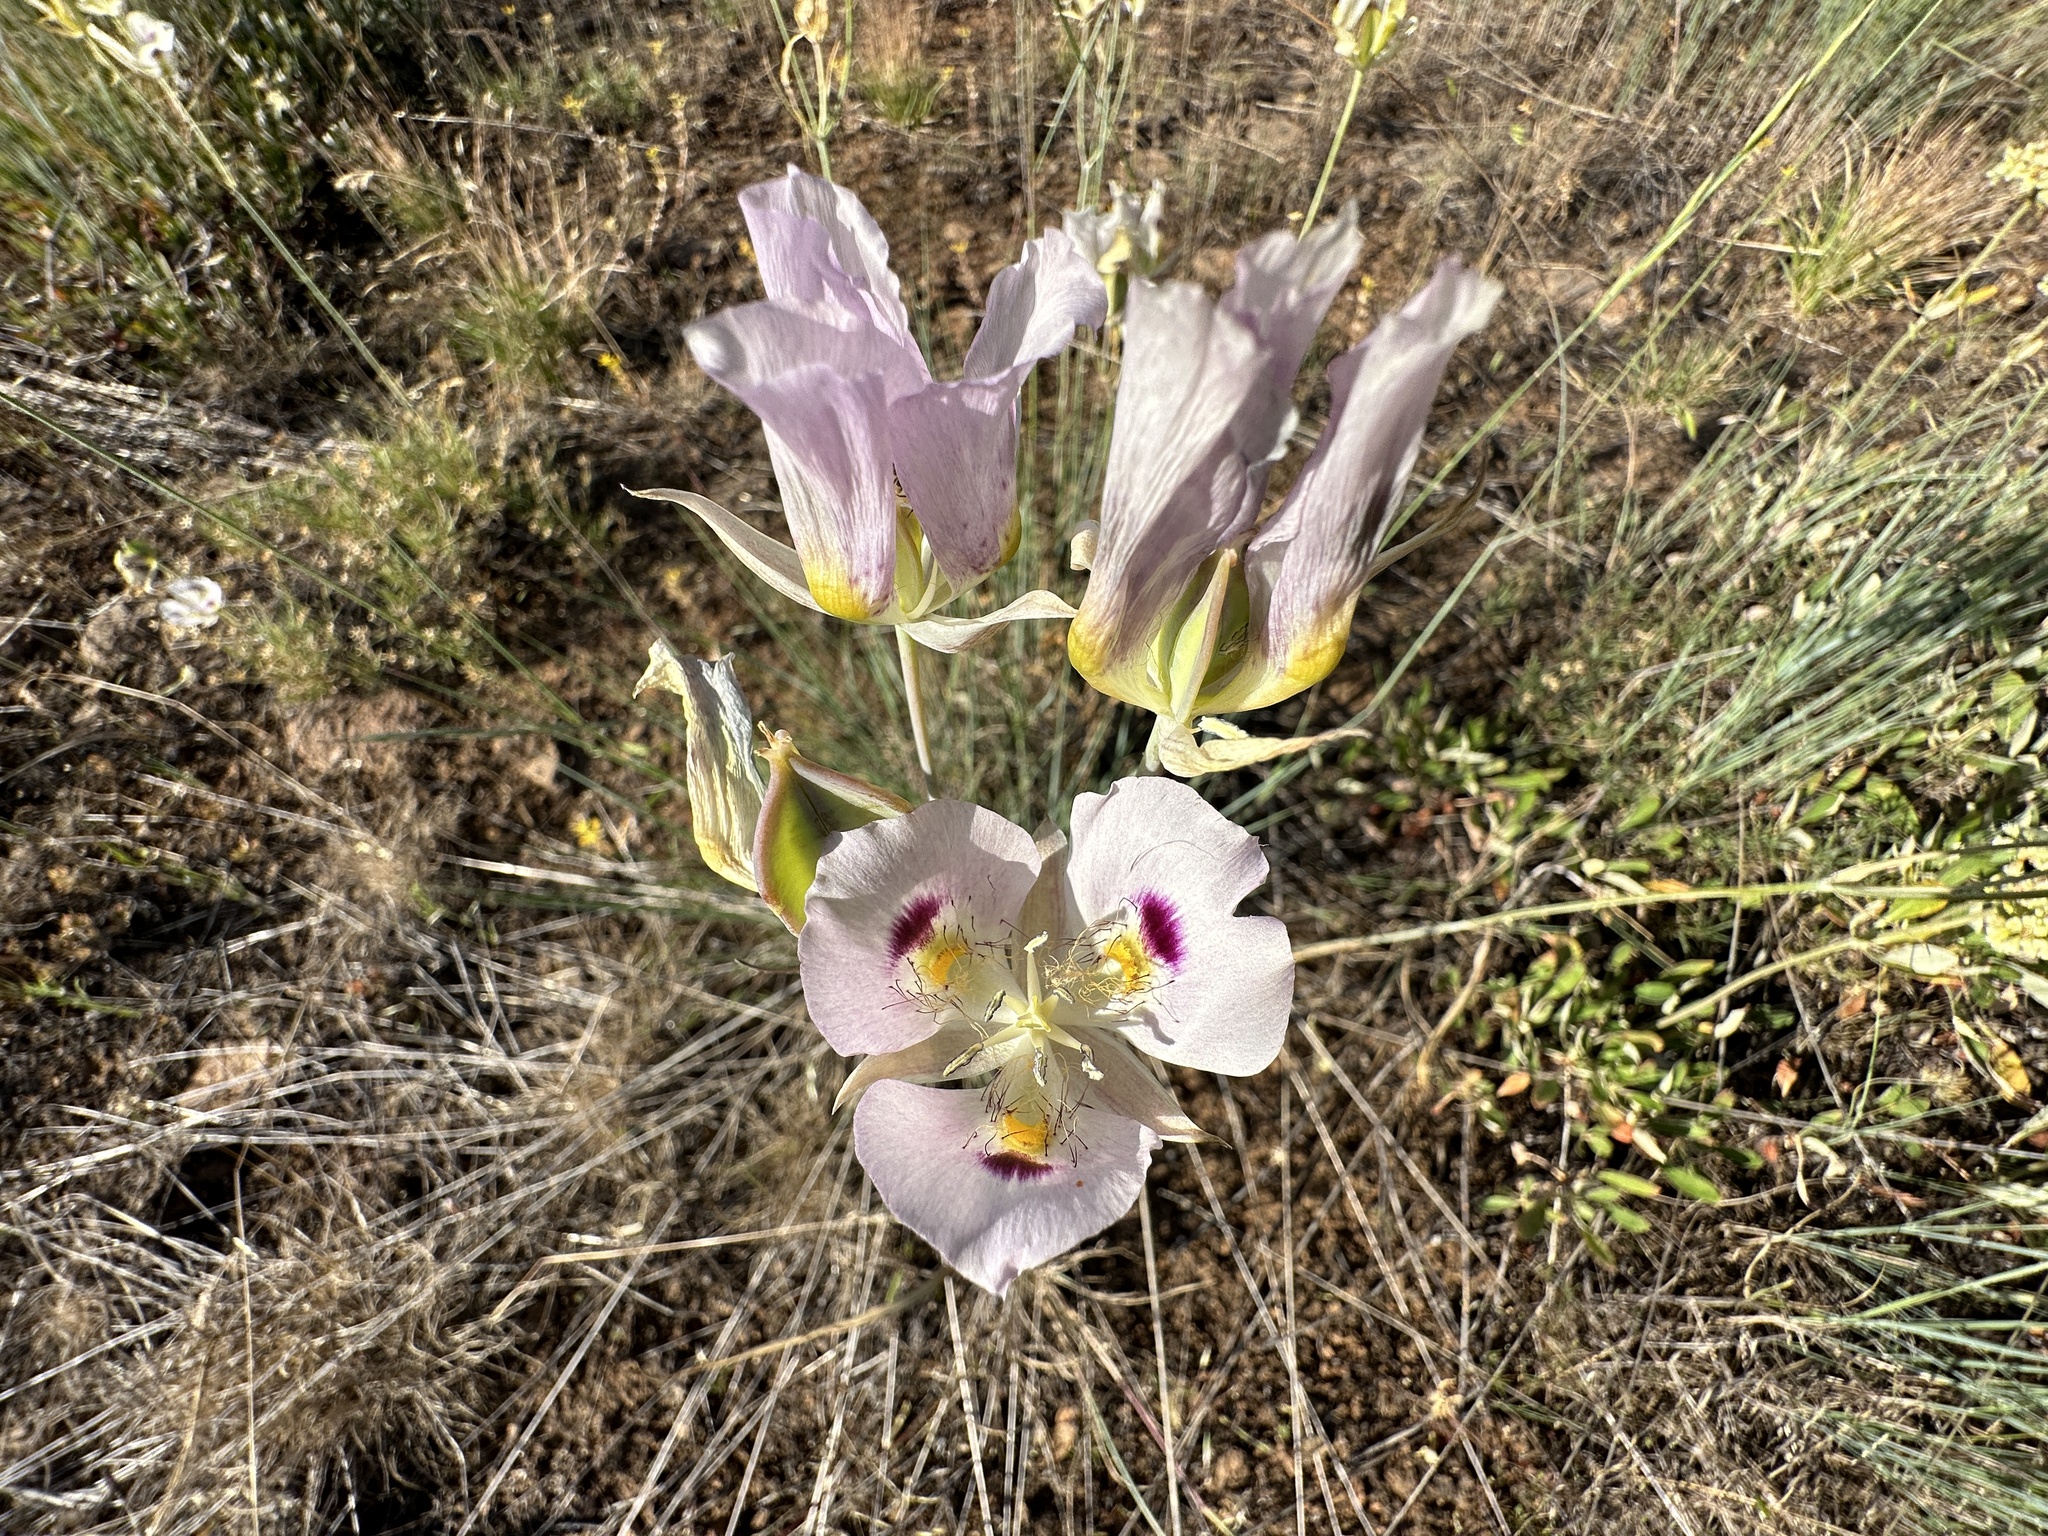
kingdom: Plantae
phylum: Tracheophyta
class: Liliopsida
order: Liliales
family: Liliaceae
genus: Calochortus
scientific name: Calochortus eurycarpus
